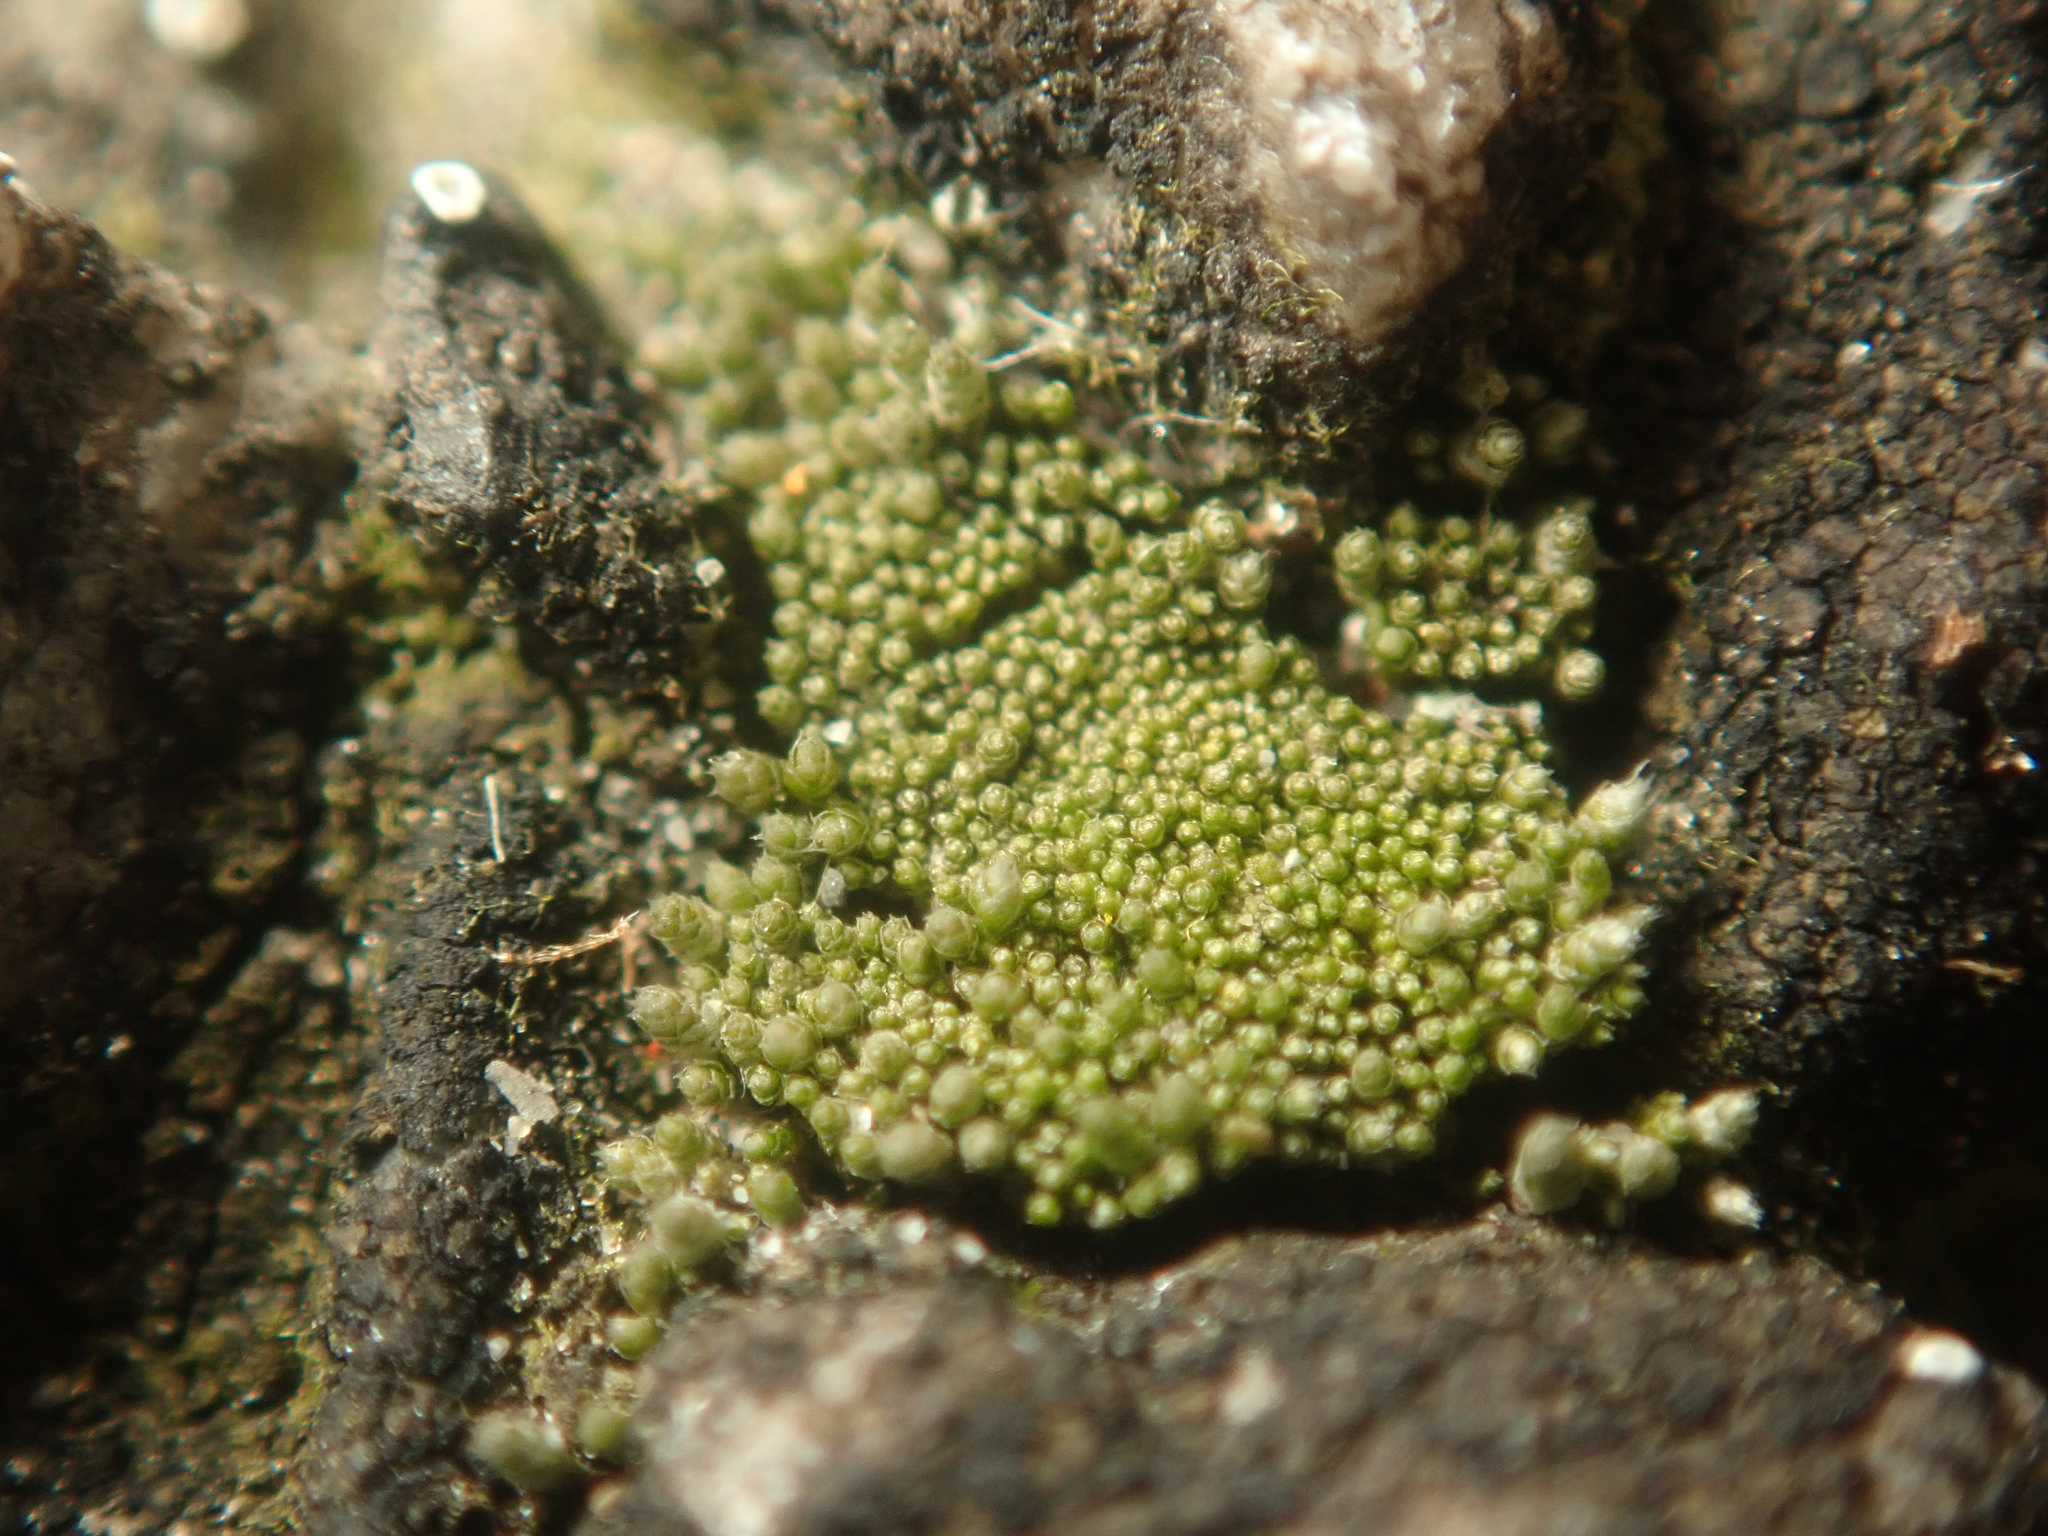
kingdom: Plantae
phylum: Bryophyta
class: Bryopsida
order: Bryales
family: Bryaceae
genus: Bryum
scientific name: Bryum argenteum
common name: Silver-moss
